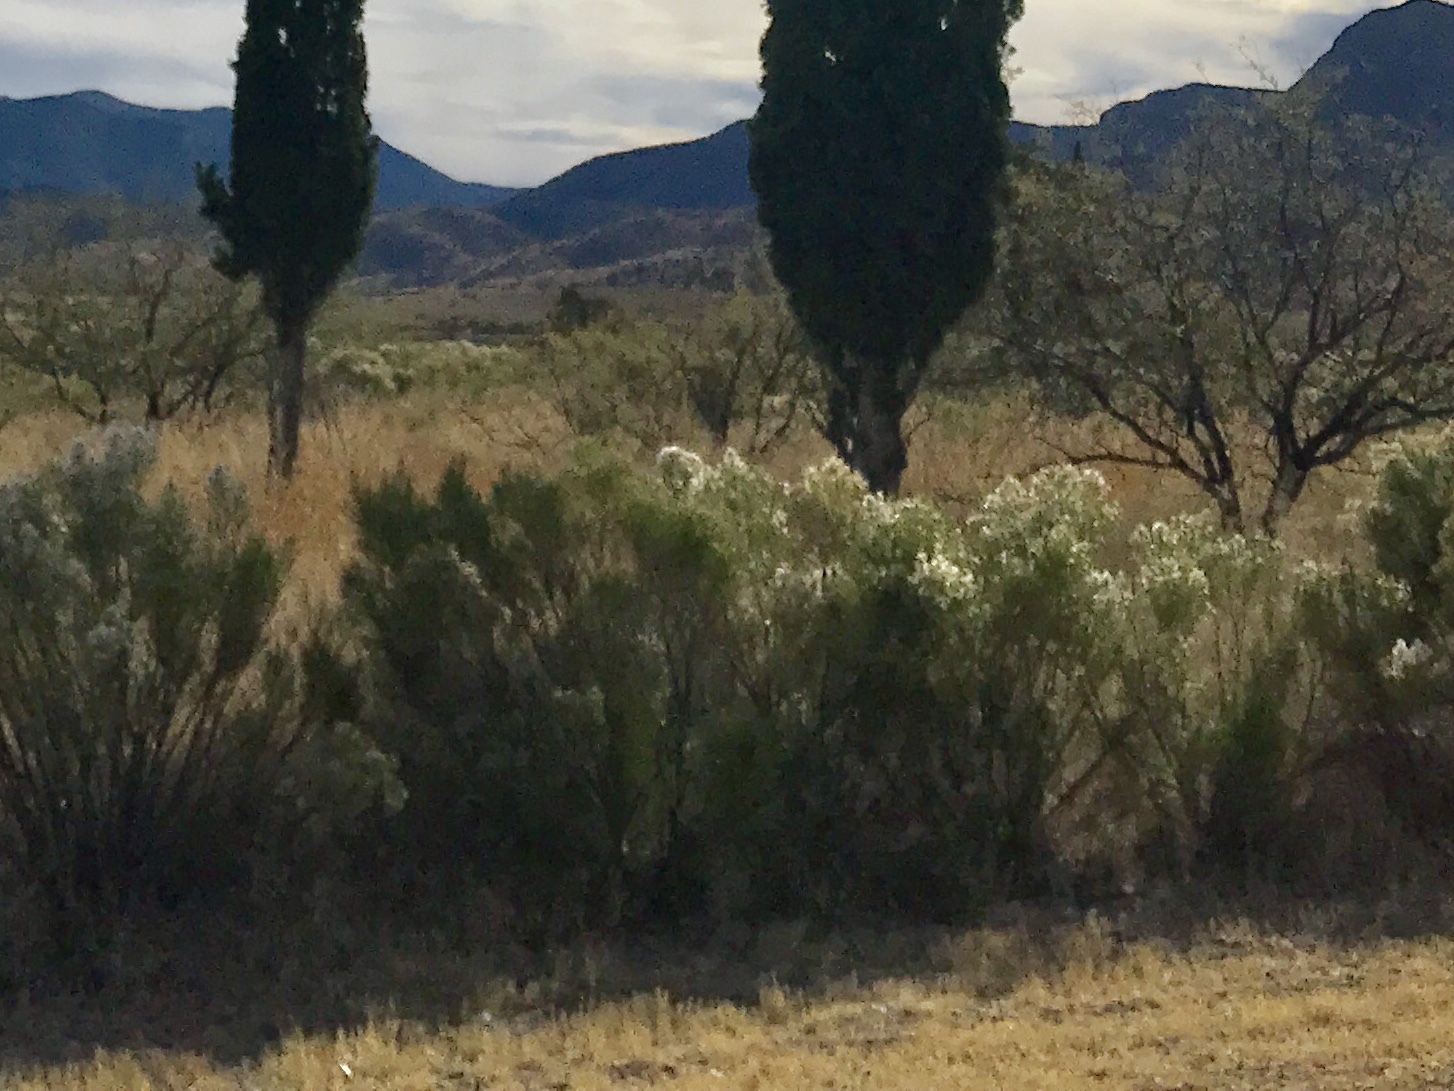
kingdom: Plantae
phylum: Tracheophyta
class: Magnoliopsida
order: Asterales
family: Asteraceae
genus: Baccharis
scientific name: Baccharis sarothroides
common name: Desert-broom
